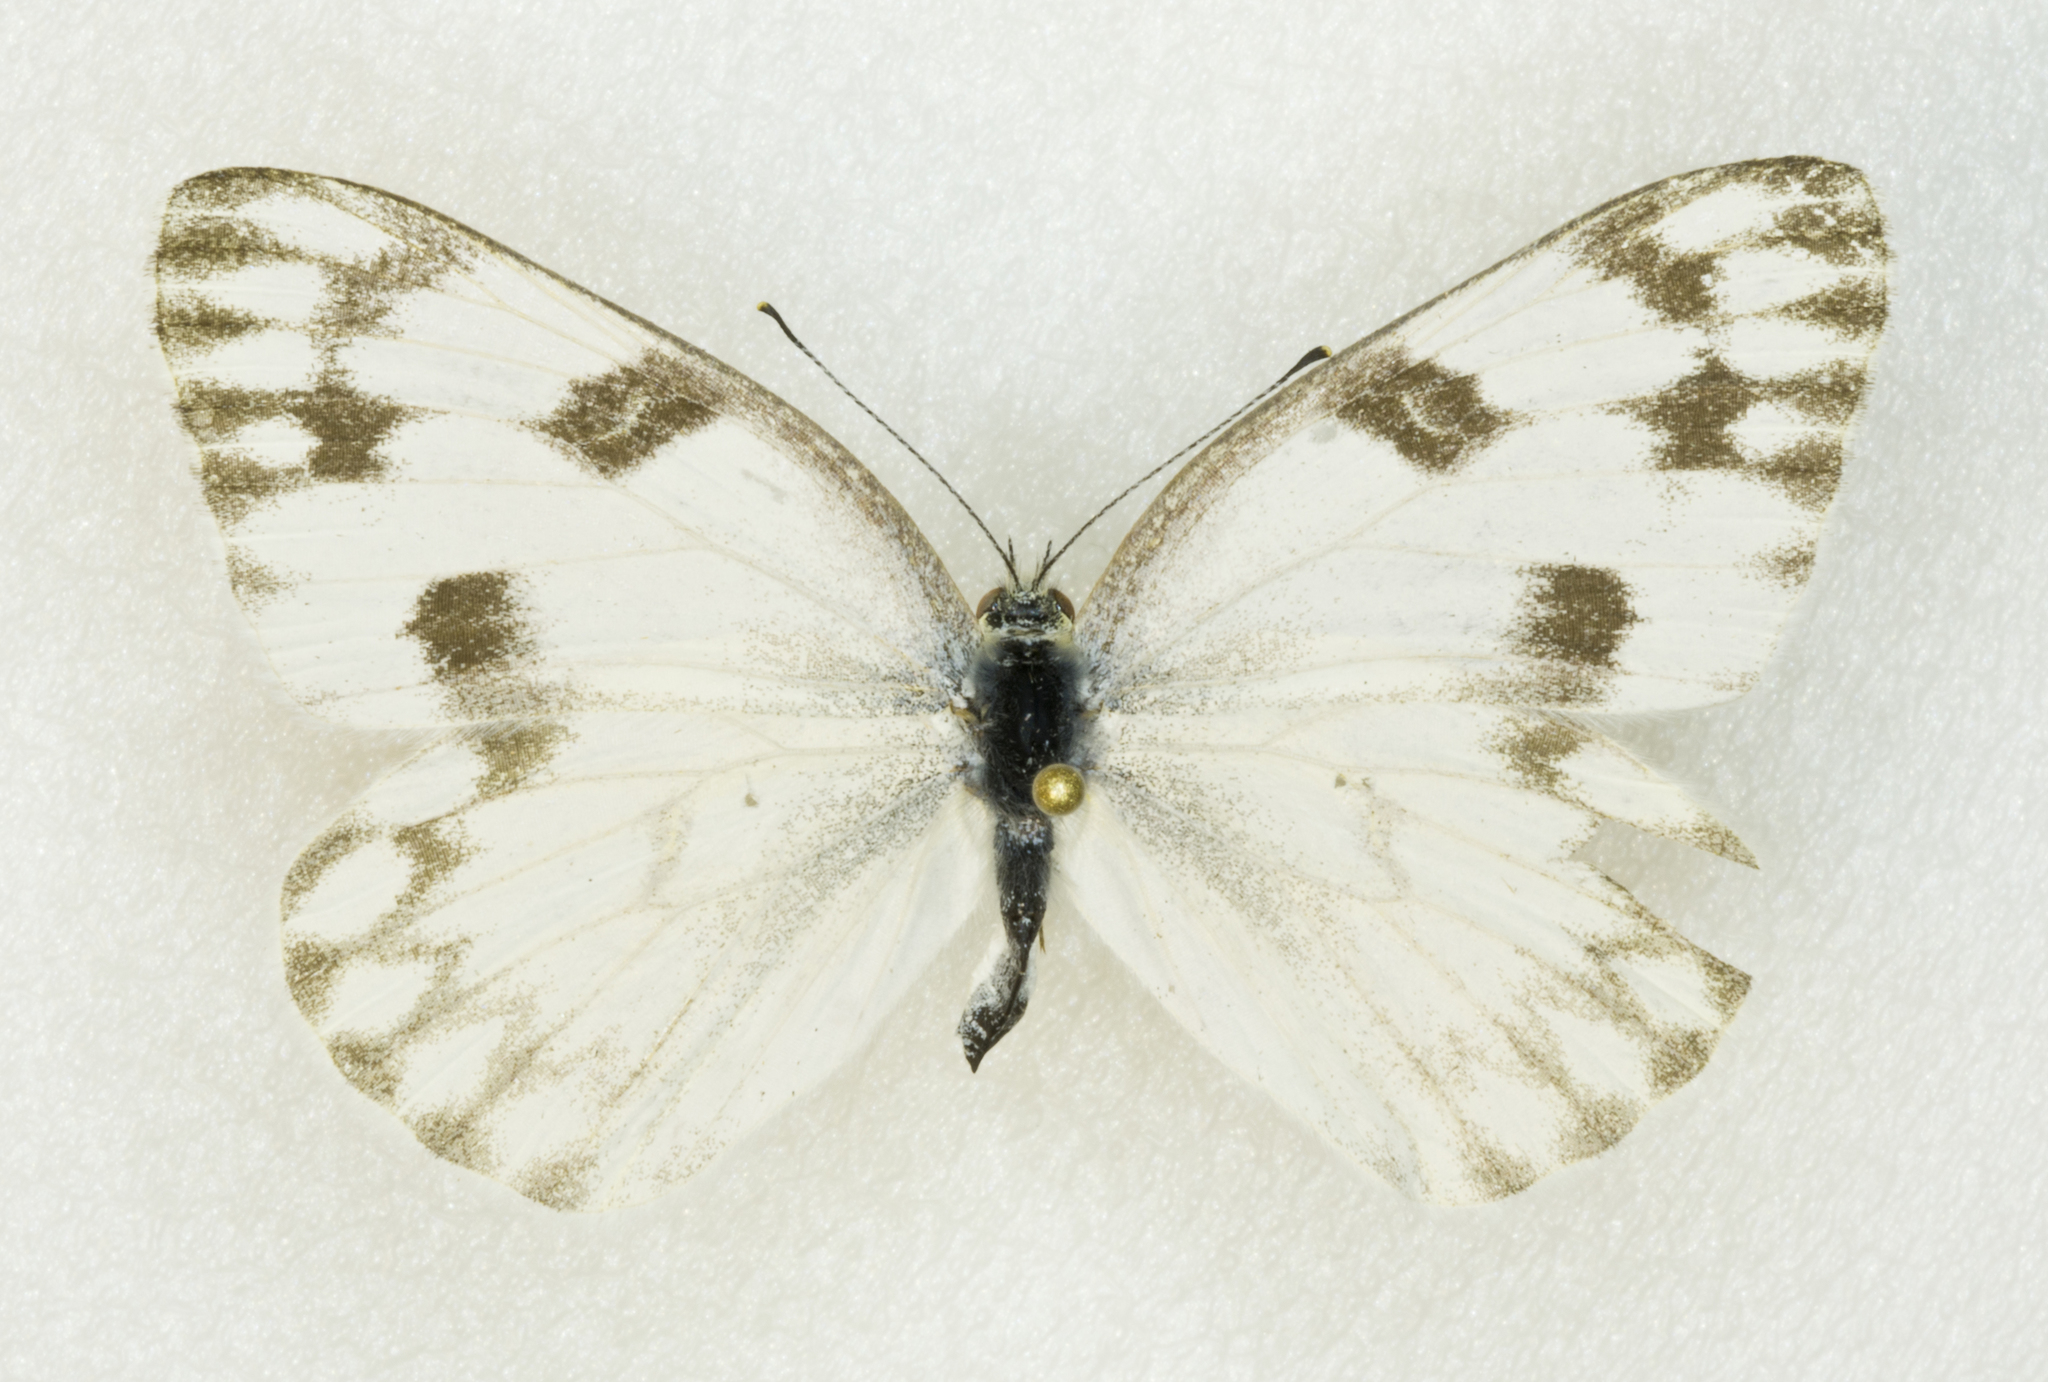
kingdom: Animalia
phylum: Arthropoda
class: Insecta
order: Lepidoptera
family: Pieridae
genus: Pontia
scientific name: Pontia protodice
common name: Checkered white
